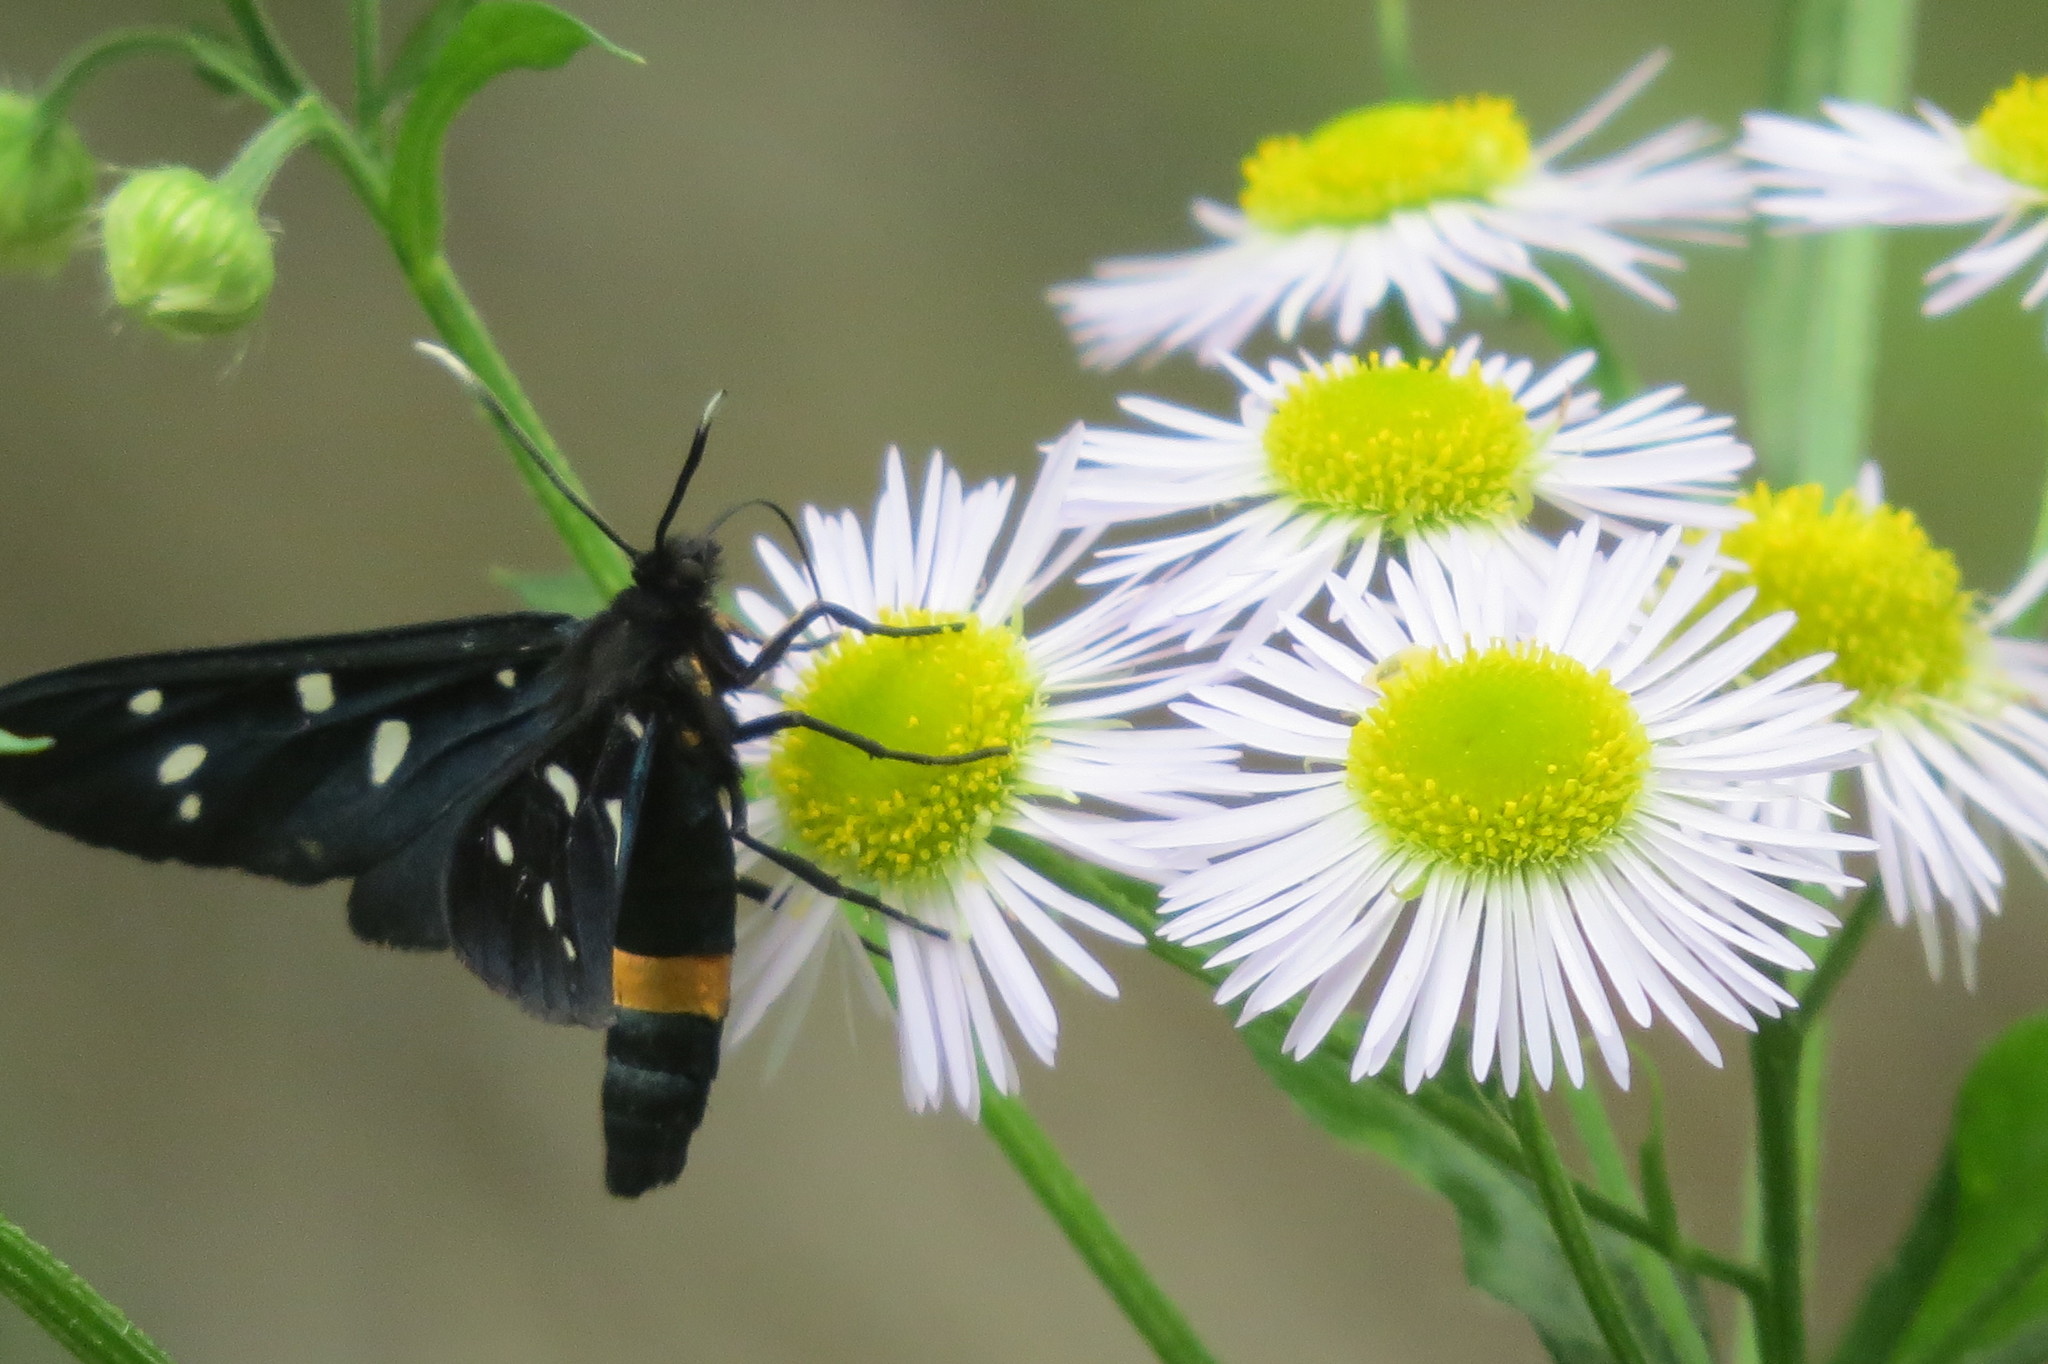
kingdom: Animalia
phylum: Arthropoda
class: Insecta
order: Lepidoptera
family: Erebidae
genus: Amata
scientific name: Amata phegea
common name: Nine-spotted
